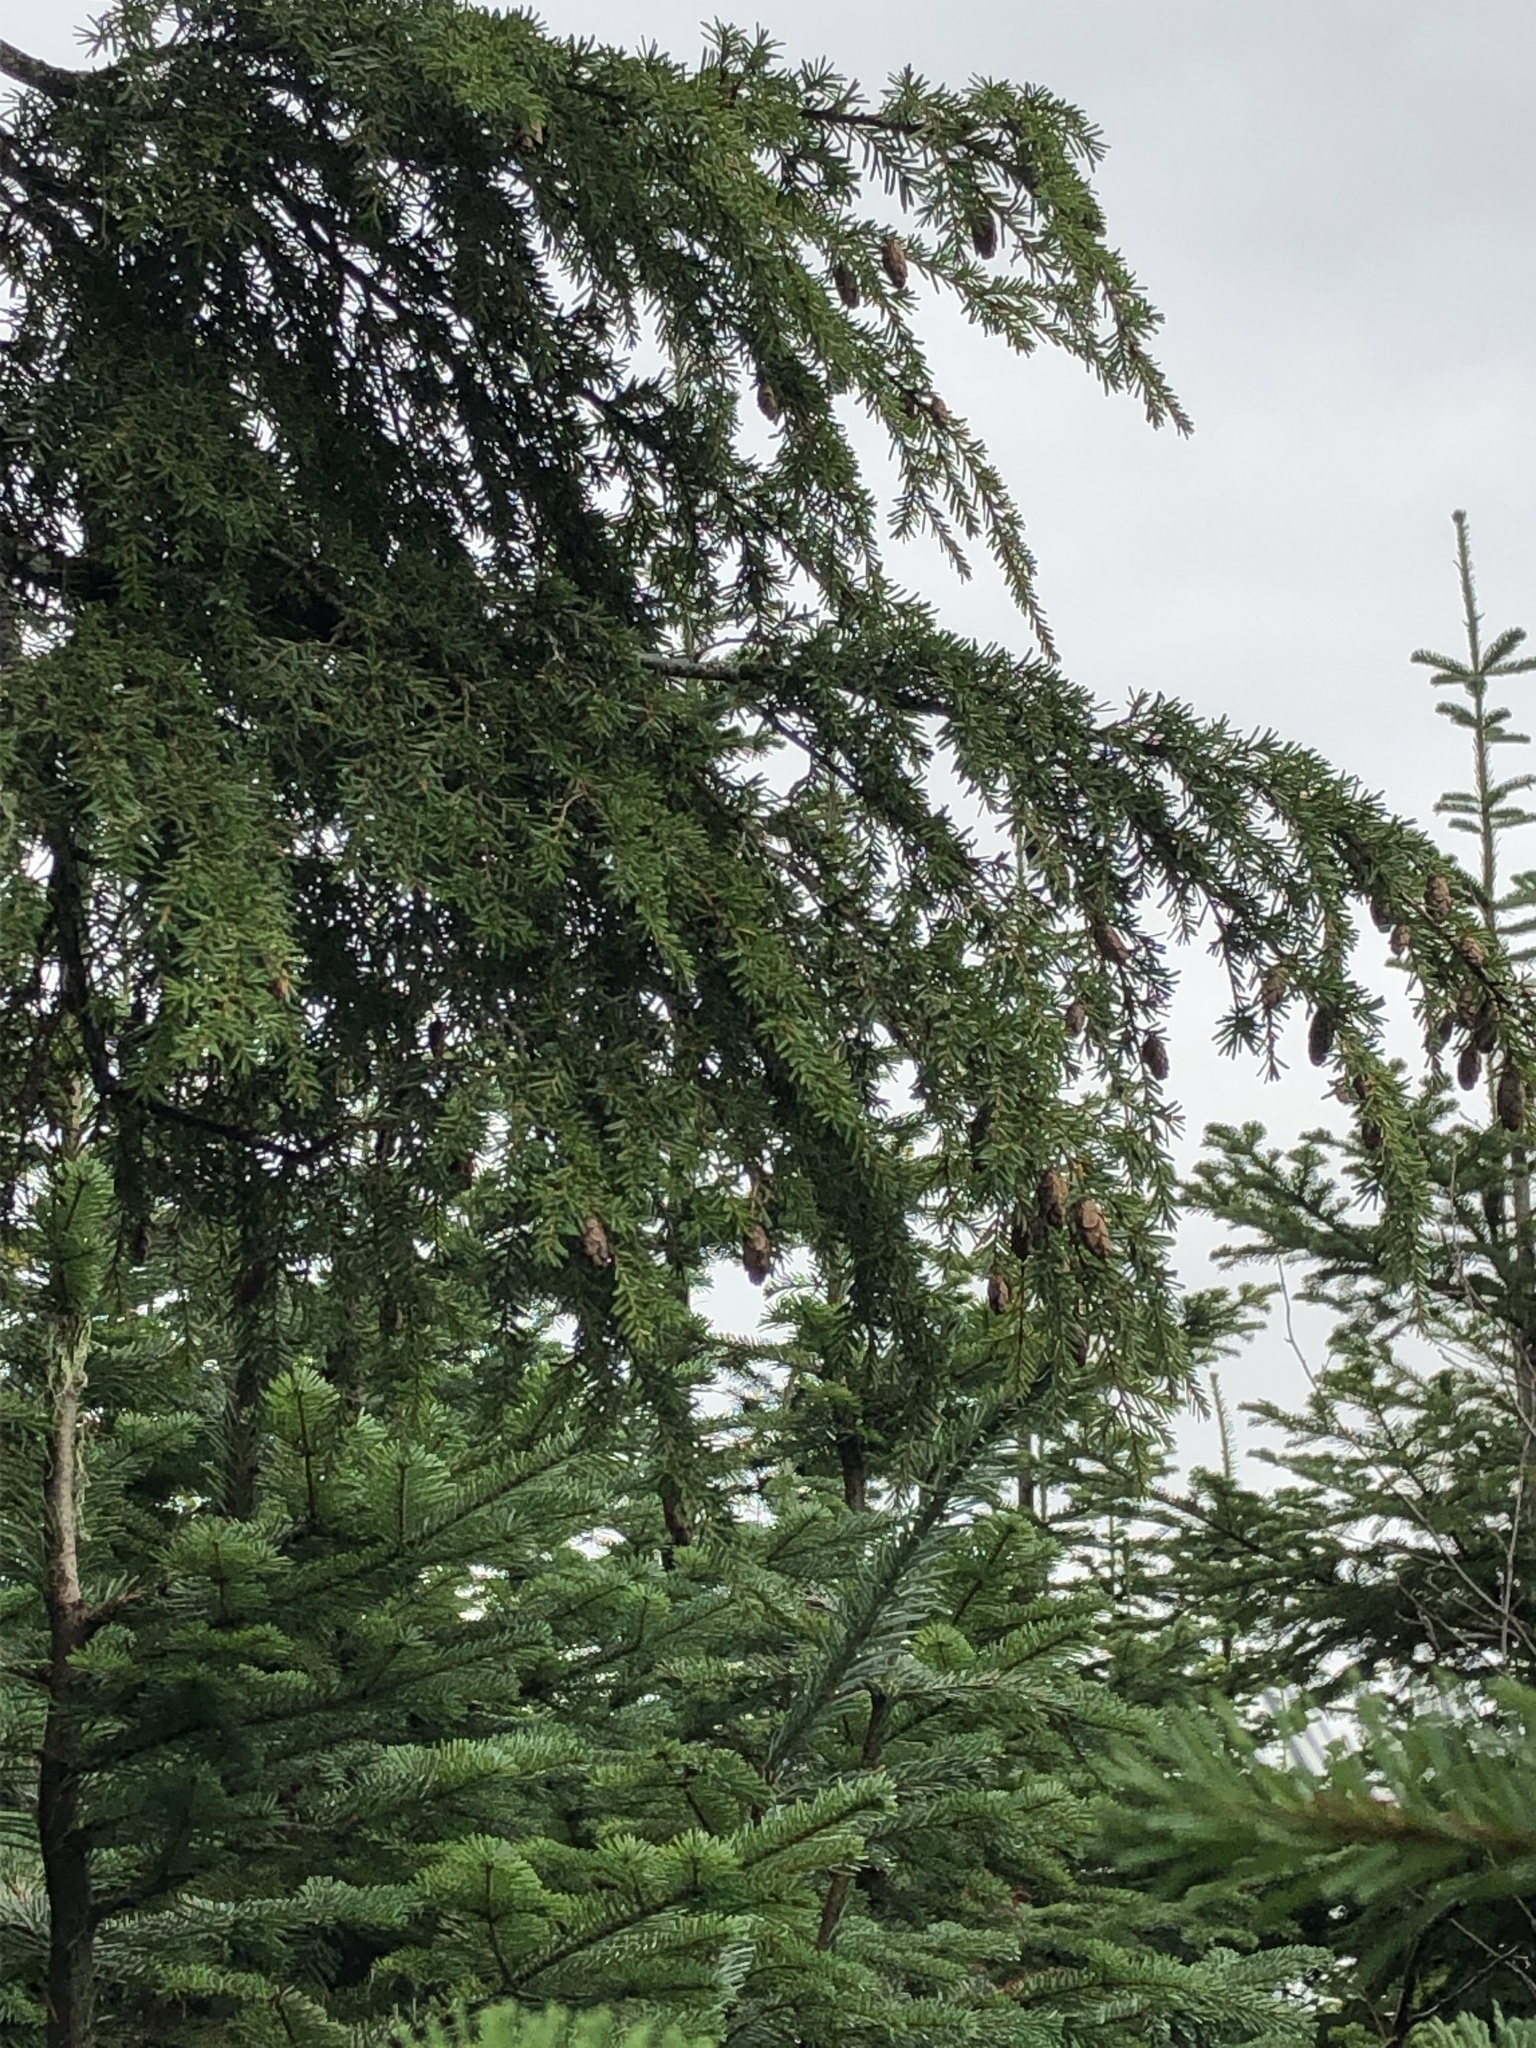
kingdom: Plantae
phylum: Tracheophyta
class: Pinopsida
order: Pinales
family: Pinaceae
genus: Tsuga
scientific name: Tsuga heterophylla
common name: Western hemlock
